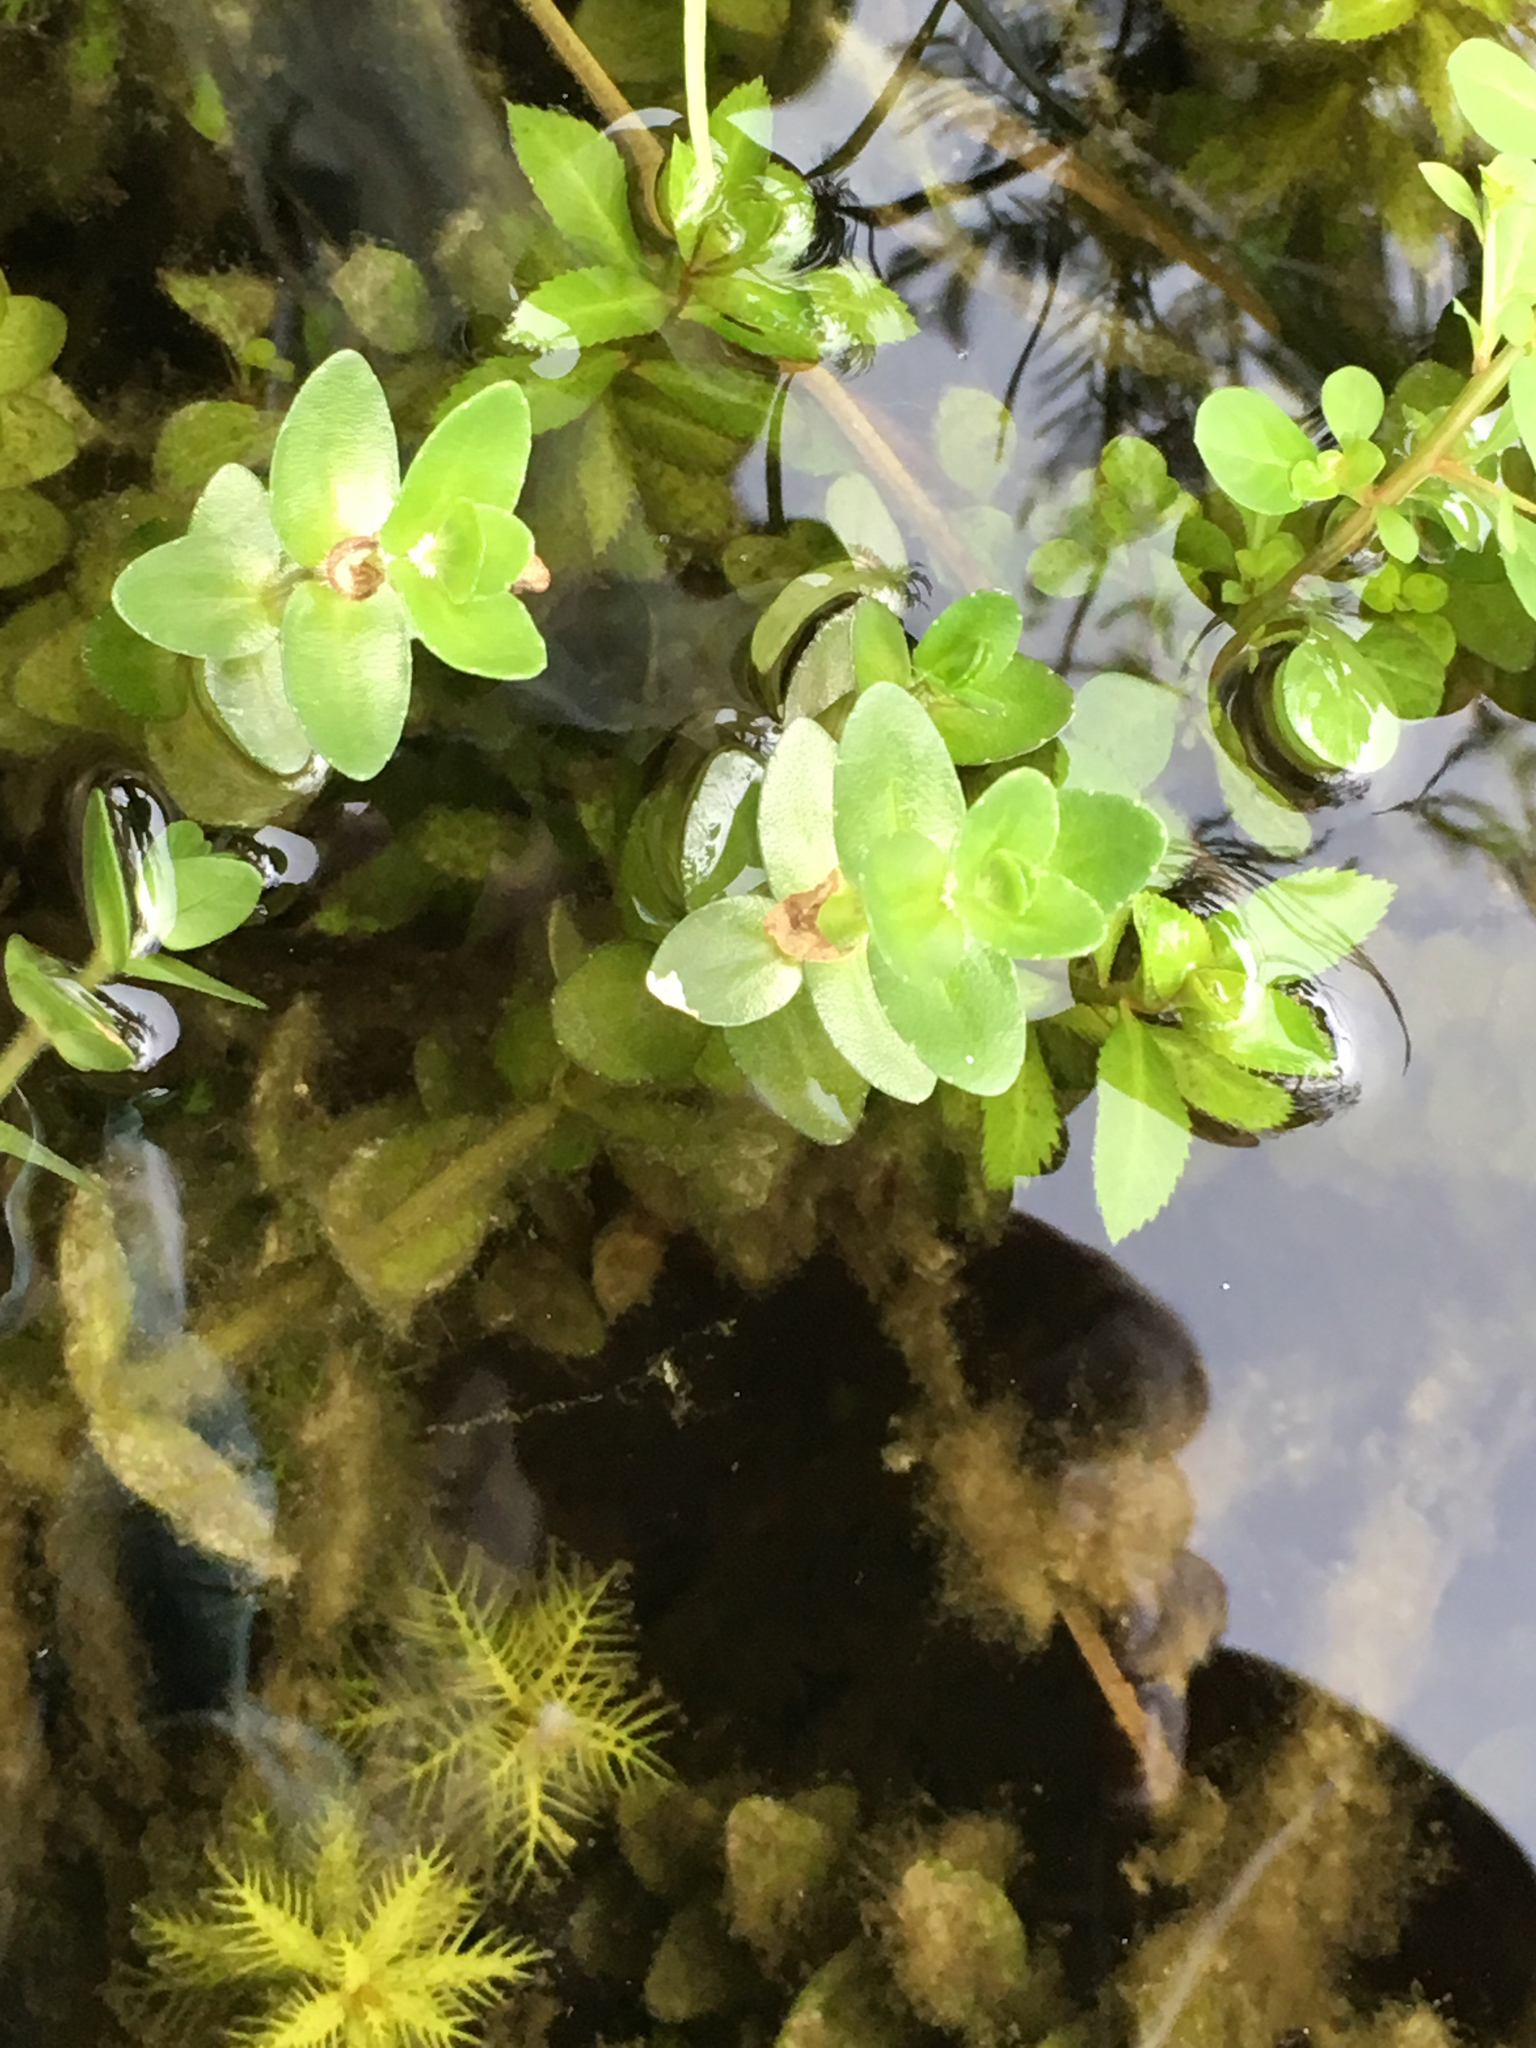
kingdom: Plantae
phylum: Tracheophyta
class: Magnoliopsida
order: Lamiales
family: Plantaginaceae
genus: Bacopa
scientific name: Bacopa caroliniana
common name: Lemon bacopa
